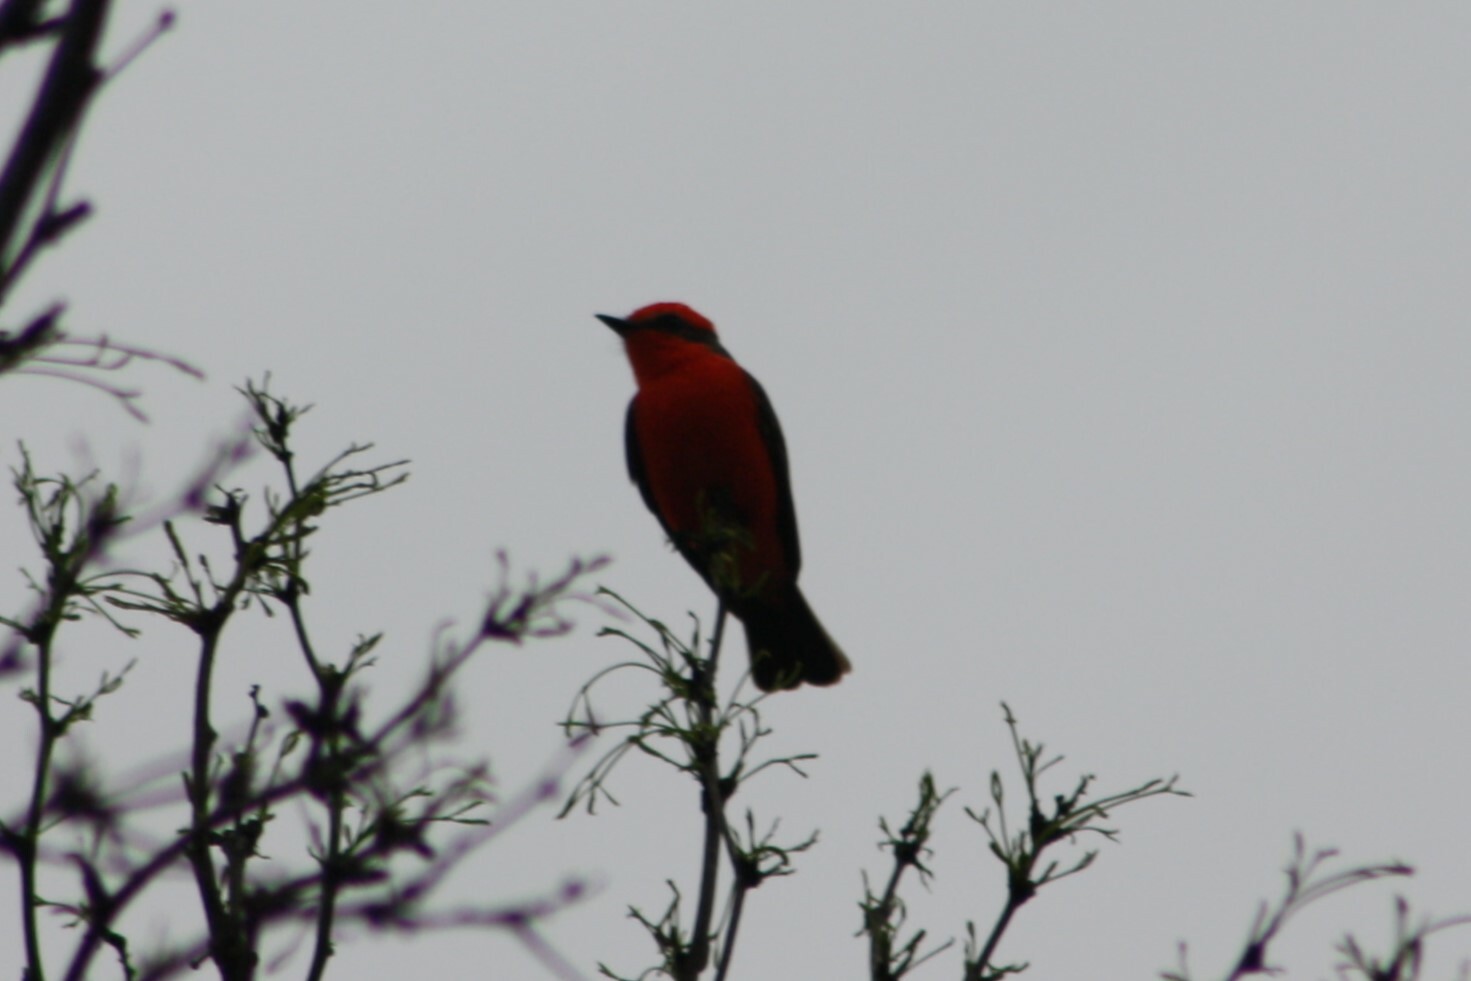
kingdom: Animalia
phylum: Chordata
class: Aves
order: Passeriformes
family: Tyrannidae
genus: Pyrocephalus
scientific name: Pyrocephalus rubinus
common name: Vermilion flycatcher
